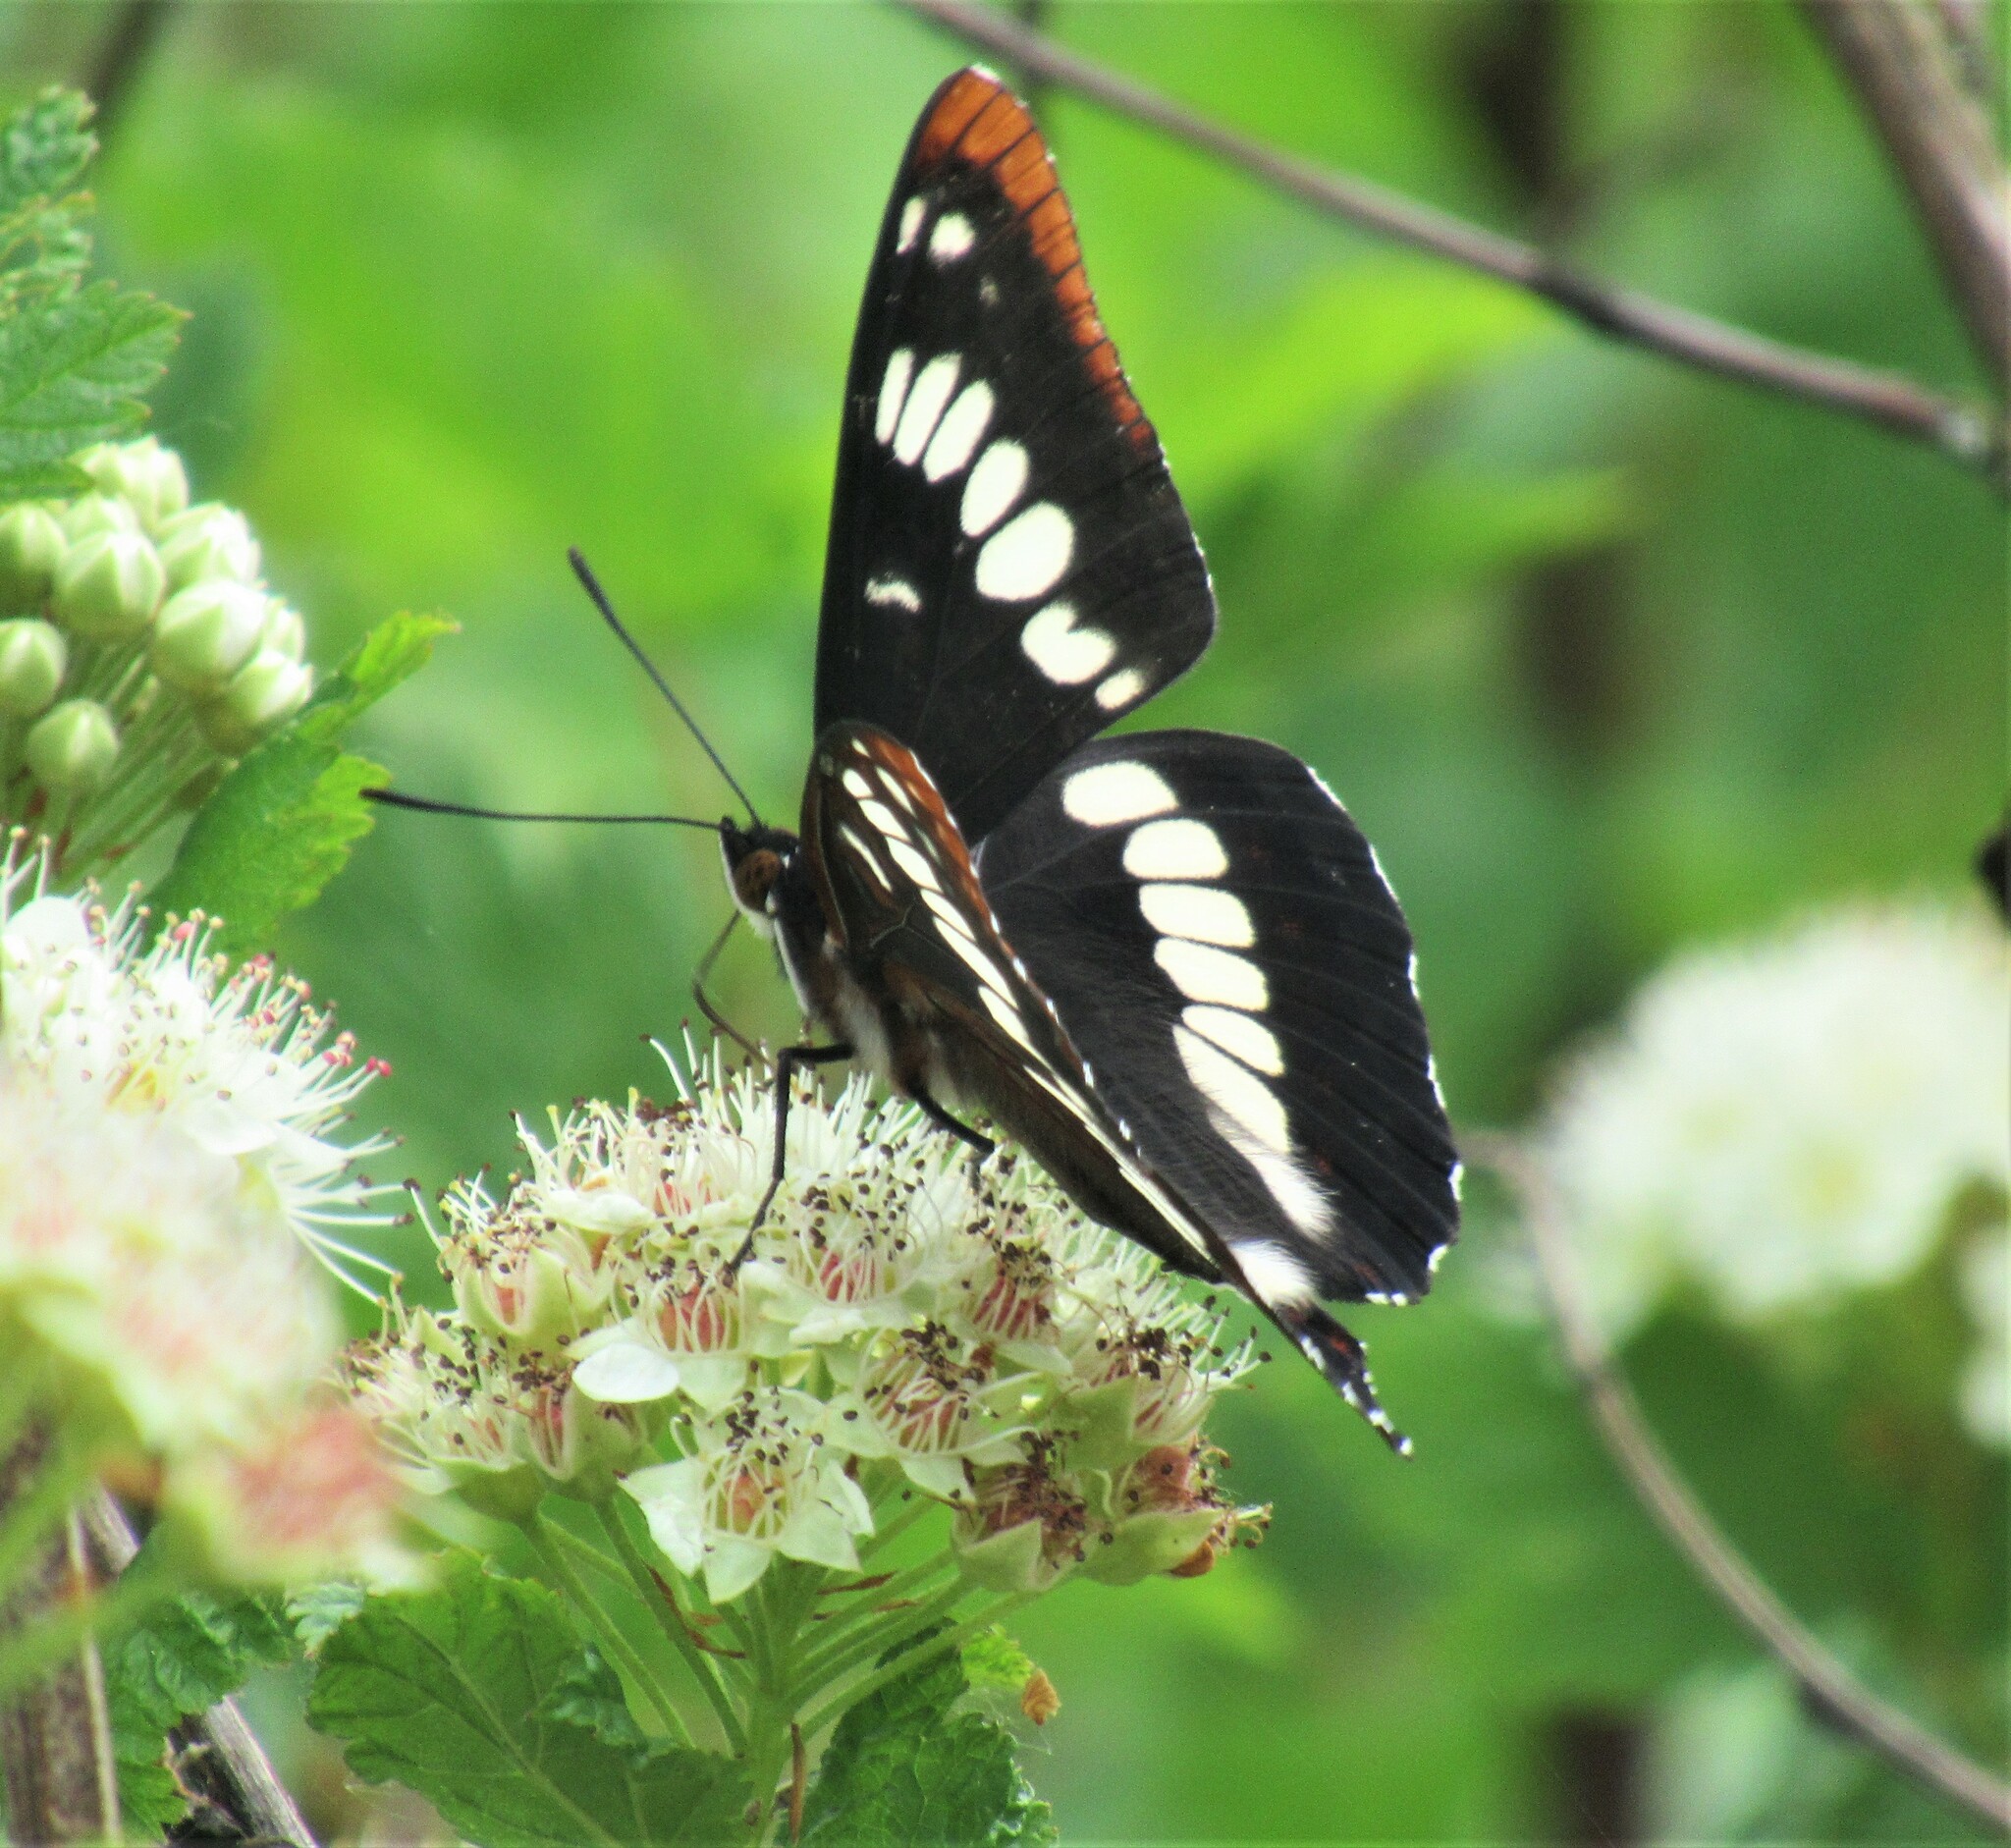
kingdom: Animalia
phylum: Arthropoda
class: Insecta
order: Lepidoptera
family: Nymphalidae
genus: Limenitis
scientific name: Limenitis lorquini
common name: Lorquin's admiral
